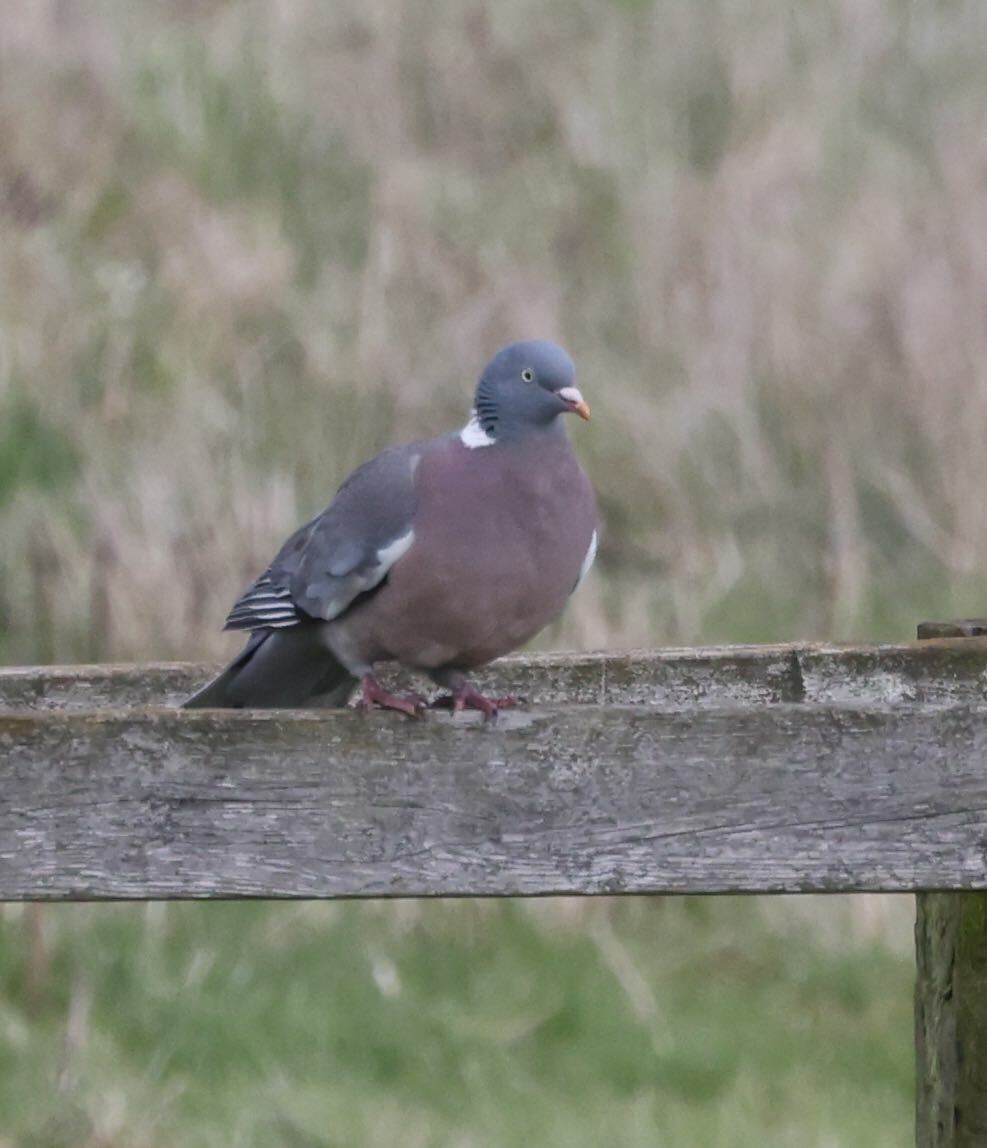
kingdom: Animalia
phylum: Chordata
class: Aves
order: Columbiformes
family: Columbidae
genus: Columba
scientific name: Columba palumbus
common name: Common wood pigeon
